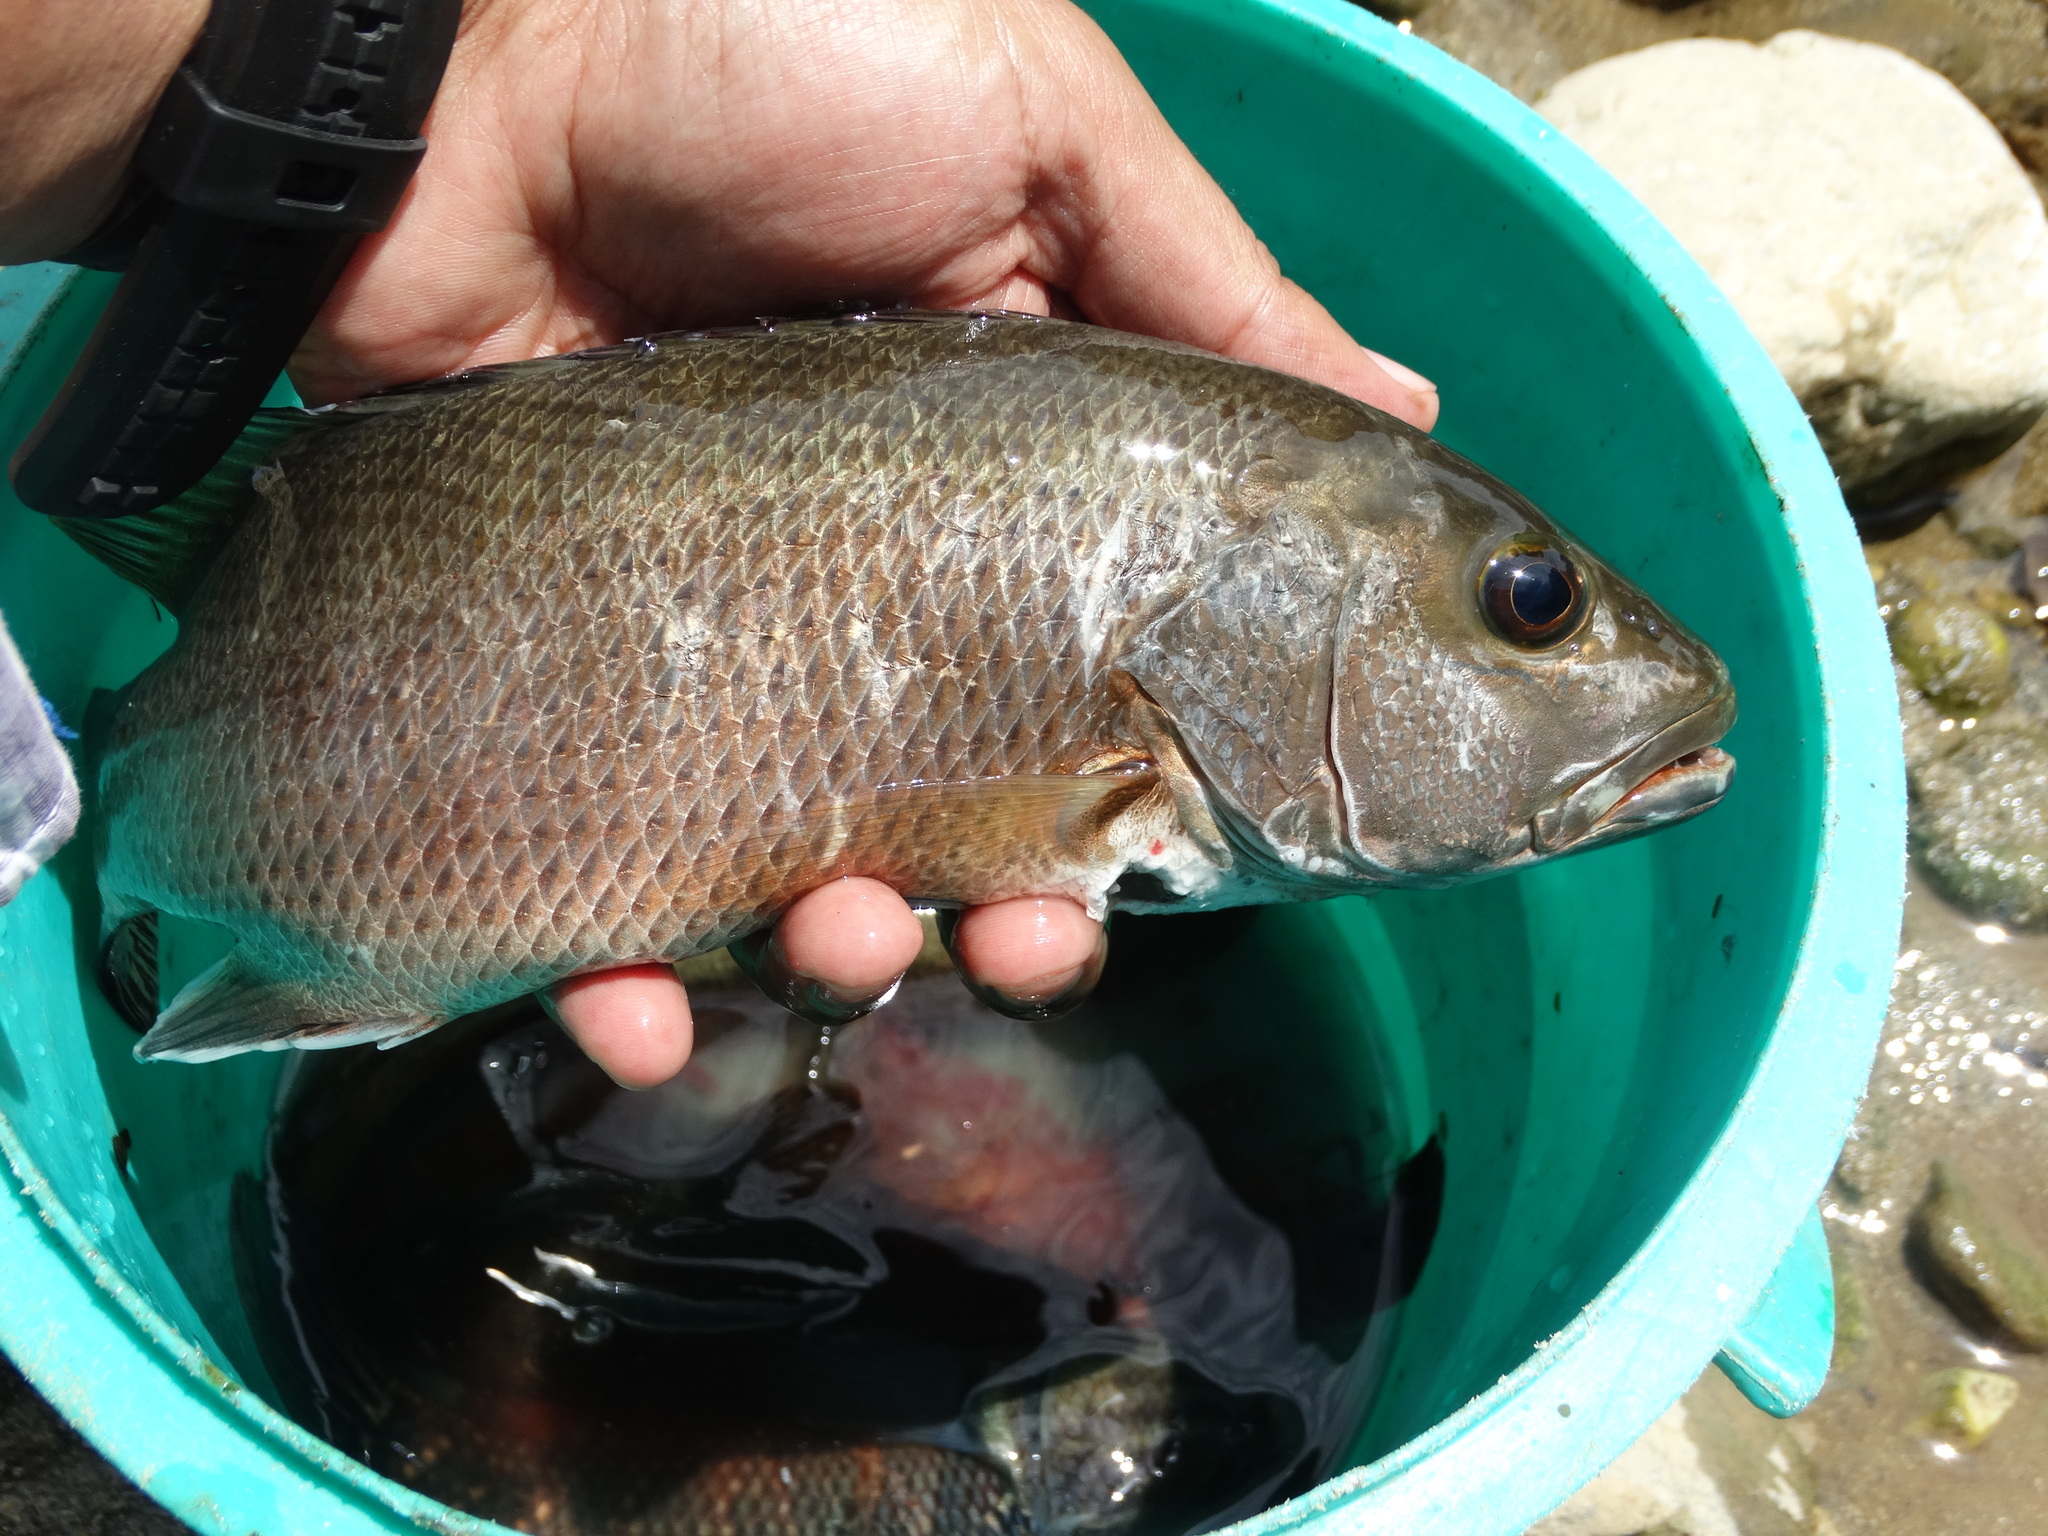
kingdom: Animalia
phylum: Chordata
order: Perciformes
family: Lutjanidae
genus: Lutjanus
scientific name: Lutjanus novemfasciatus
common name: Pacific dog snapper
